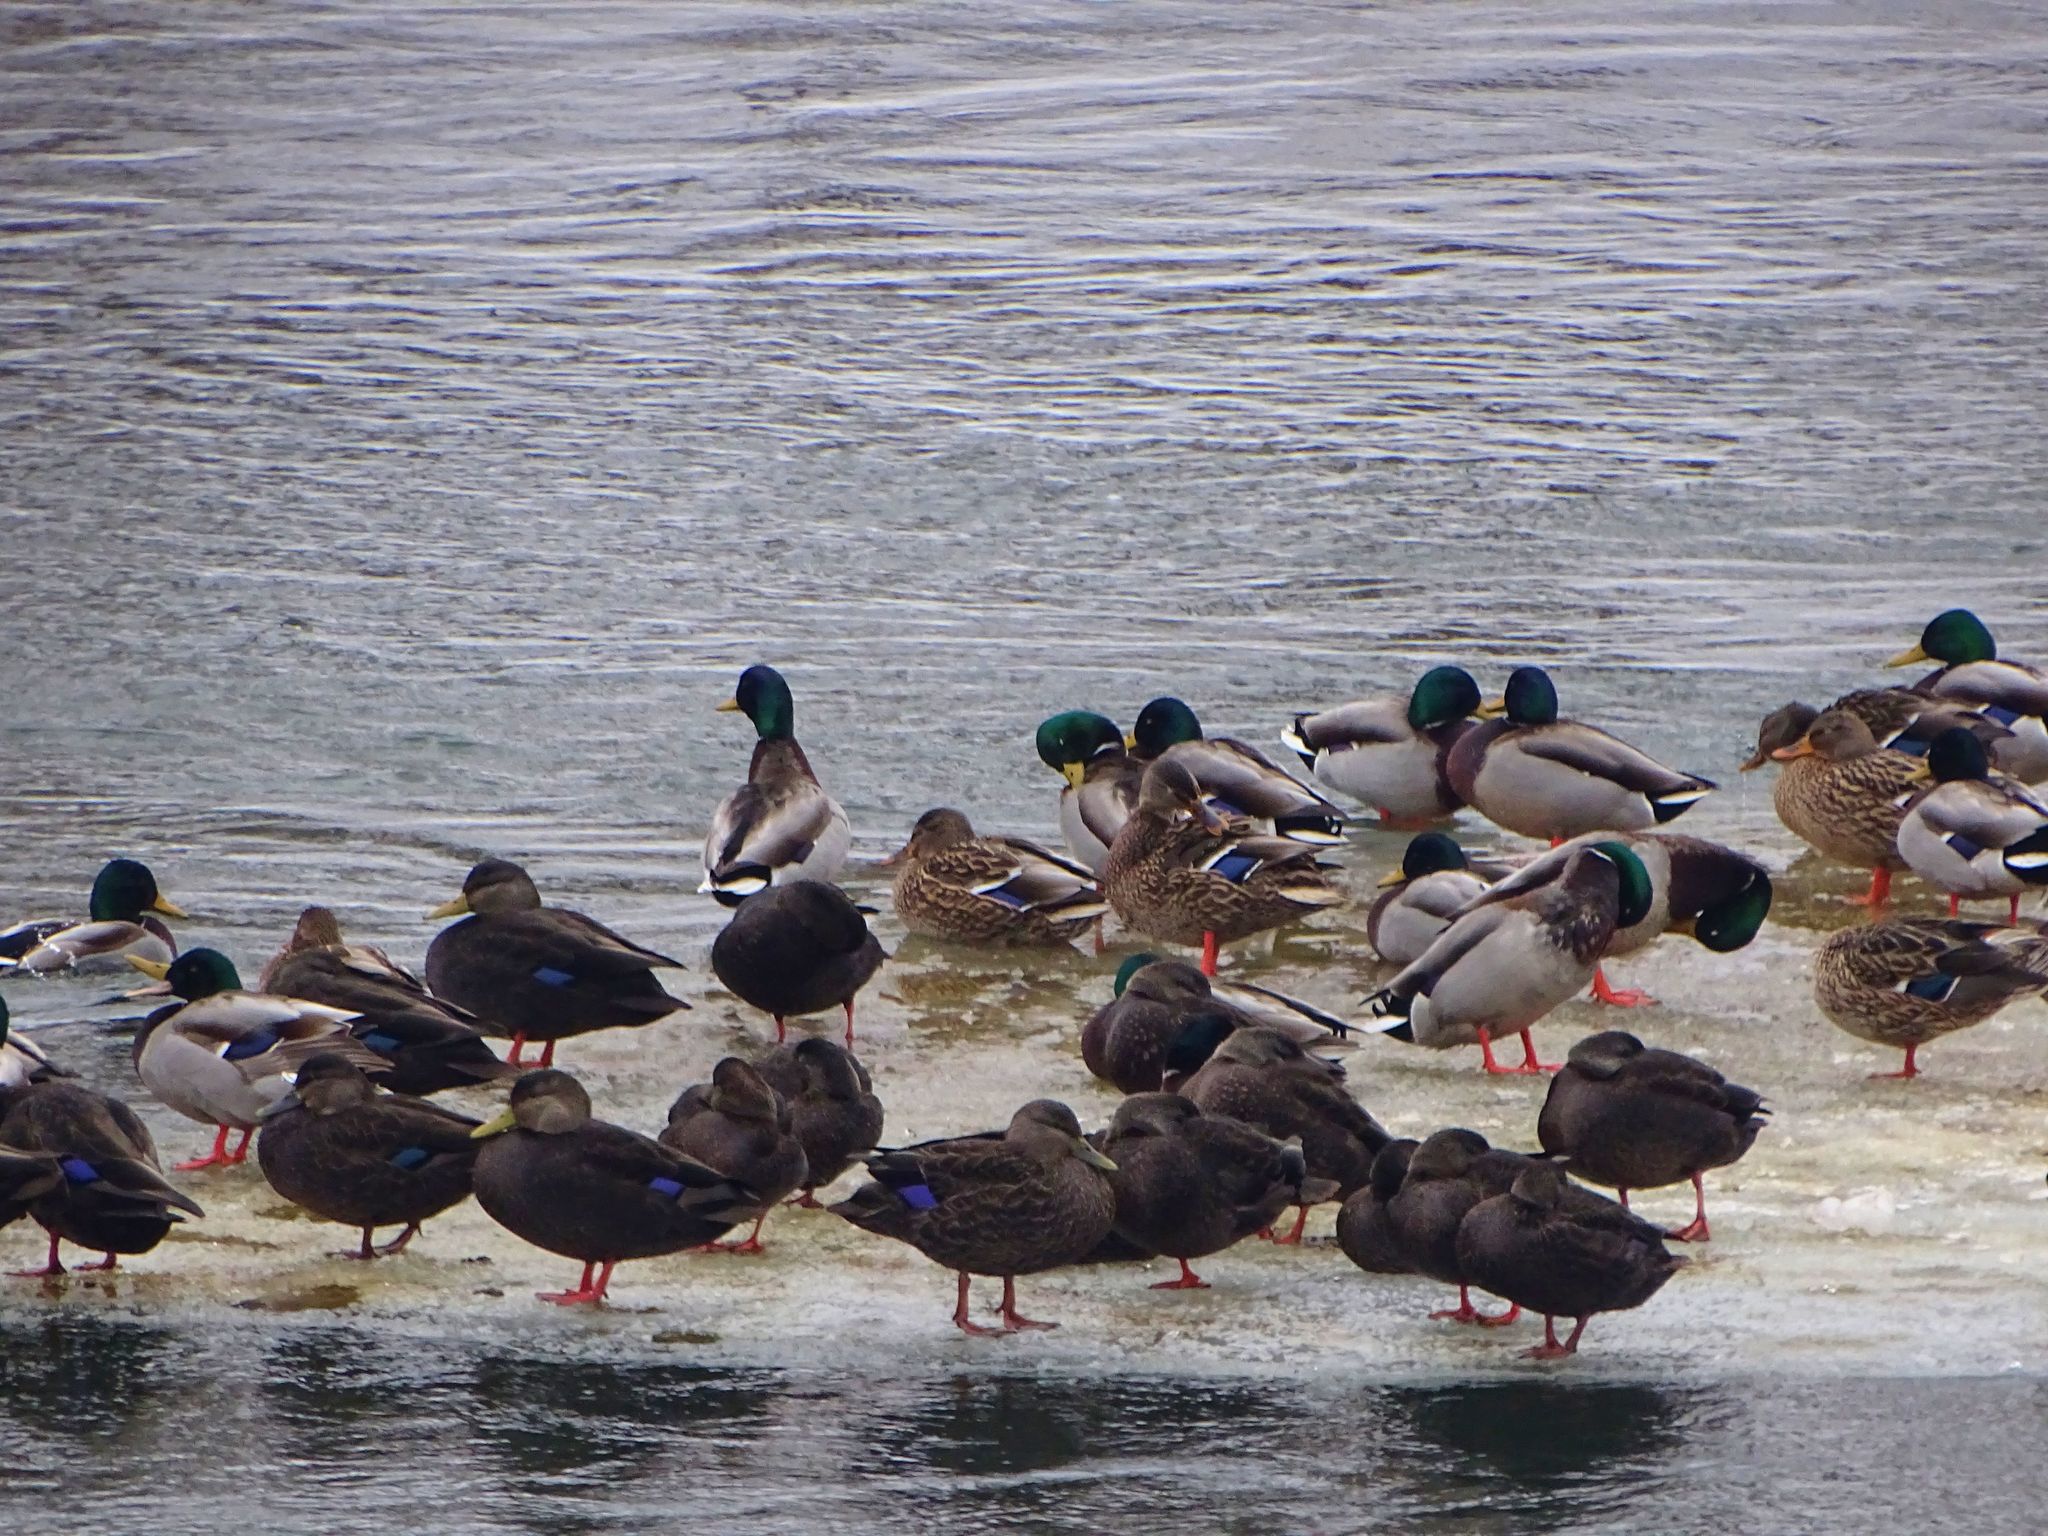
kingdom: Animalia
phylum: Chordata
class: Aves
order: Anseriformes
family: Anatidae
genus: Anas
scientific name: Anas rubripes
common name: American black duck
